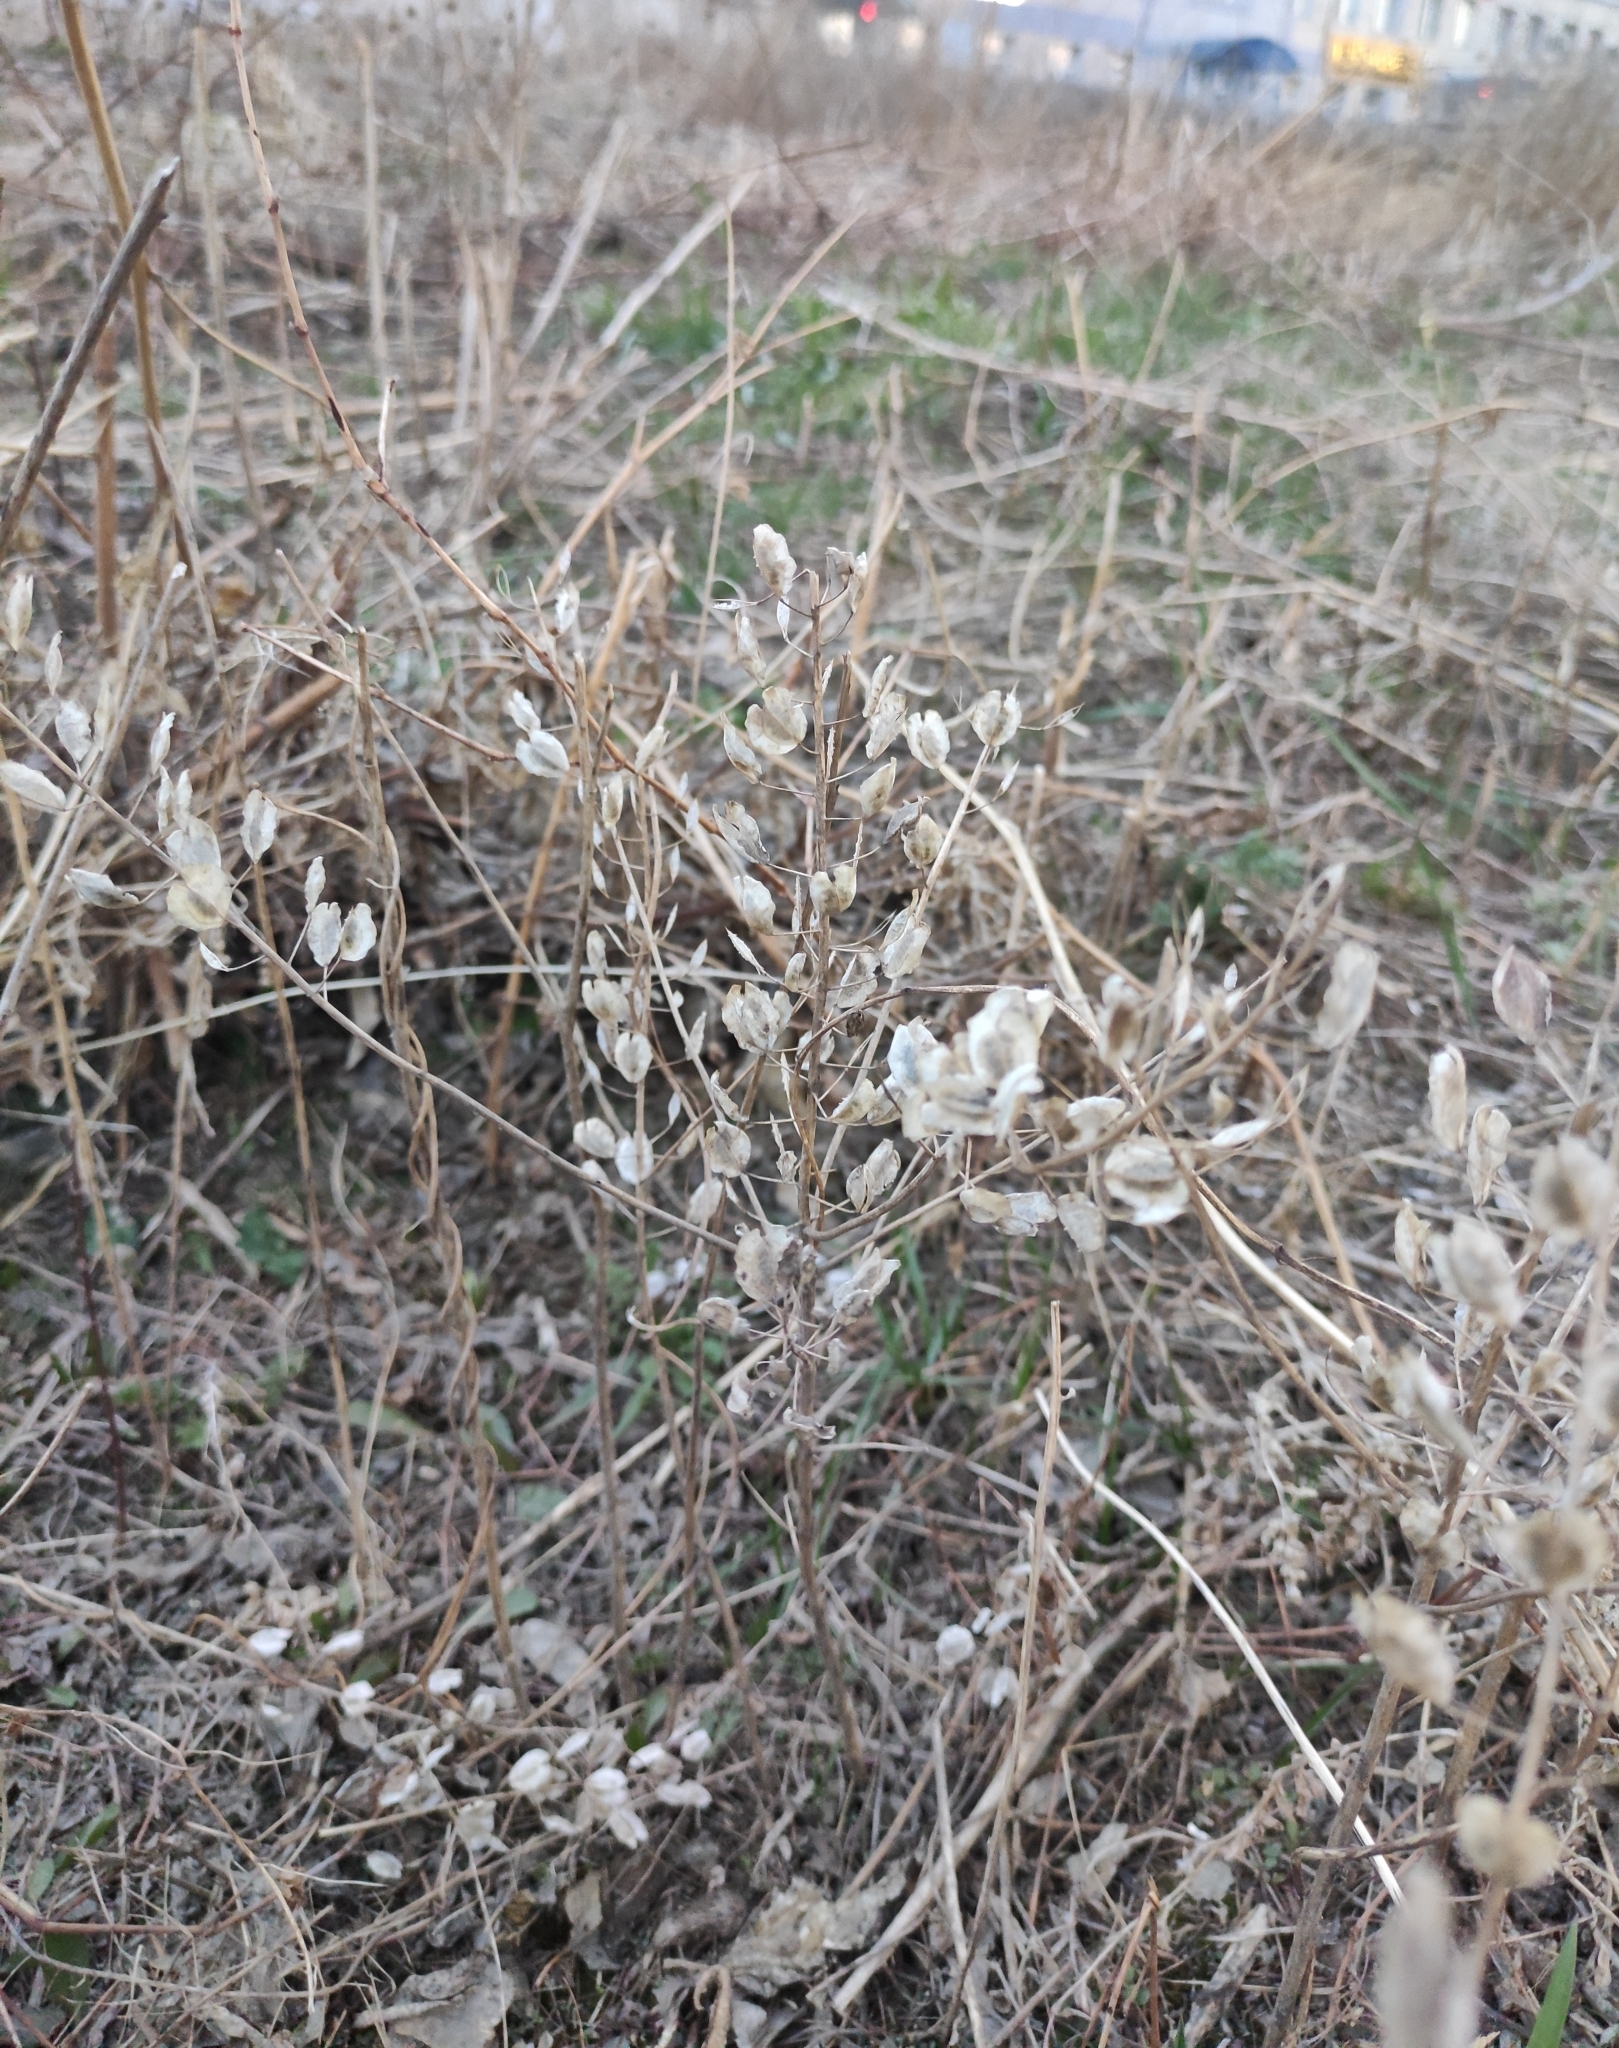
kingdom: Plantae
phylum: Tracheophyta
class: Magnoliopsida
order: Brassicales
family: Brassicaceae
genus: Thlaspi
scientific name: Thlaspi arvense
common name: Field pennycress
